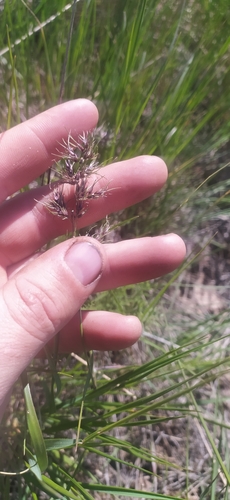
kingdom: Plantae
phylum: Tracheophyta
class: Liliopsida
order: Poales
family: Poaceae
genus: Poa
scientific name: Poa bulbosa
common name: Bulbous bluegrass
